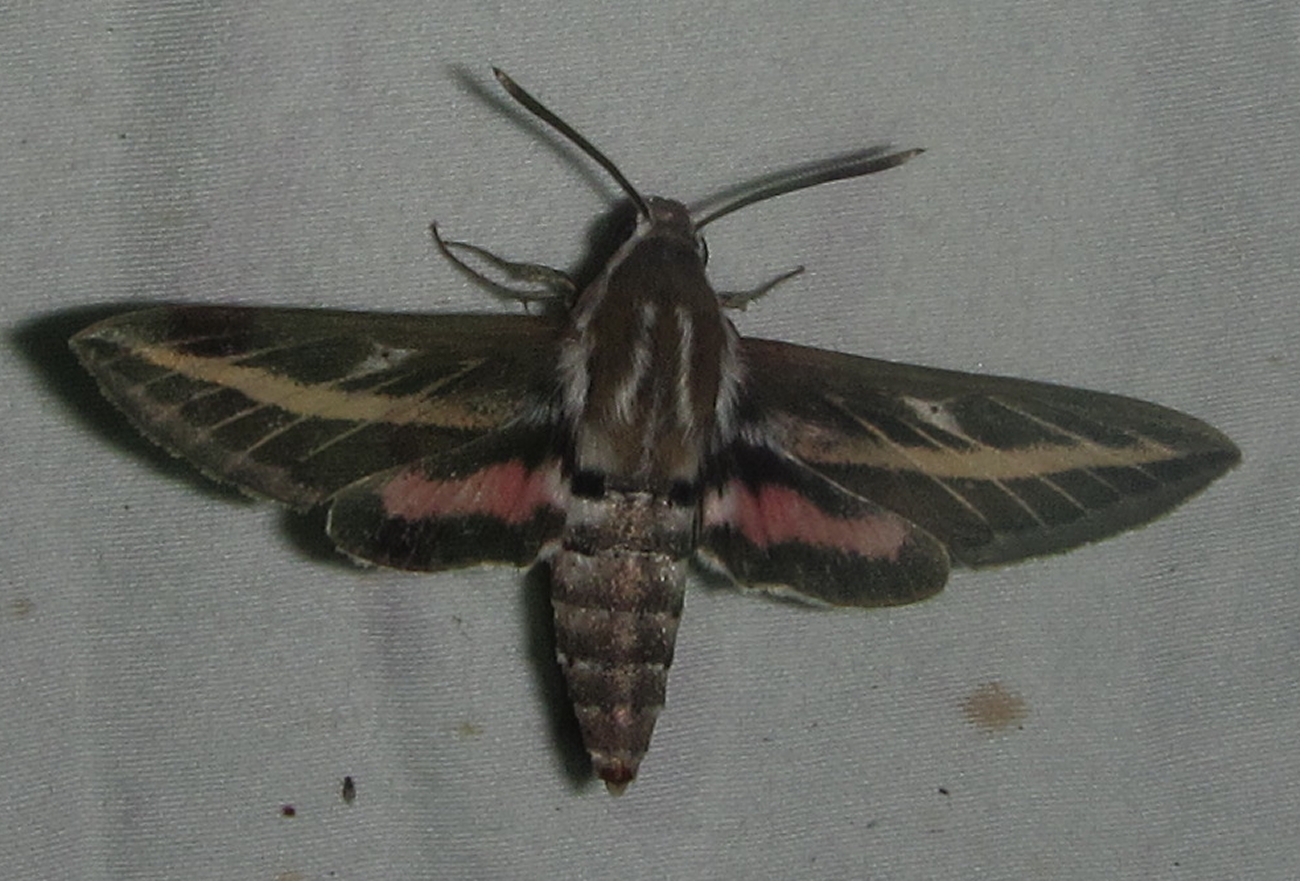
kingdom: Animalia
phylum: Arthropoda
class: Insecta
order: Lepidoptera
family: Sphingidae
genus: Hyles
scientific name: Hyles livornica
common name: Striped hawk-moth
